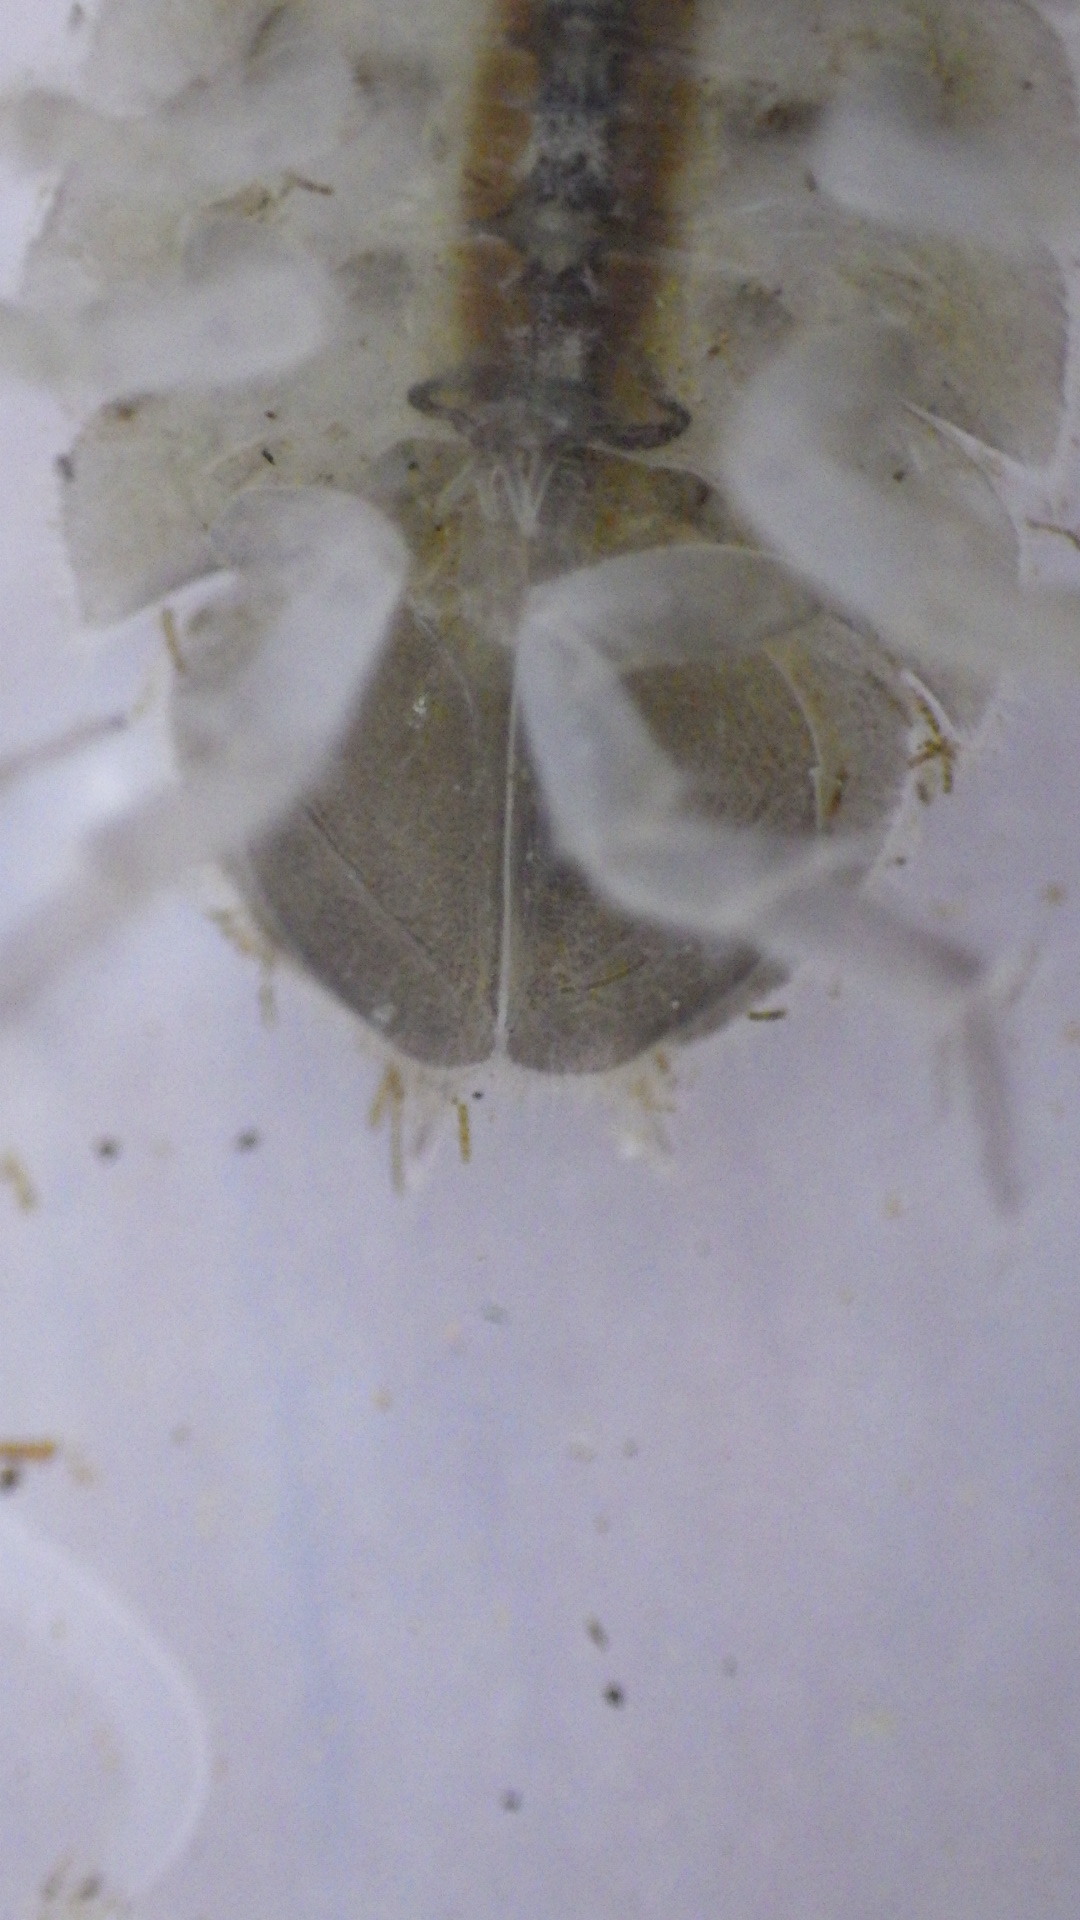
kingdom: Animalia
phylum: Arthropoda
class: Malacostraca
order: Isopoda
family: Asellidae
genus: Lirceus
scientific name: Lirceus brachyurus
